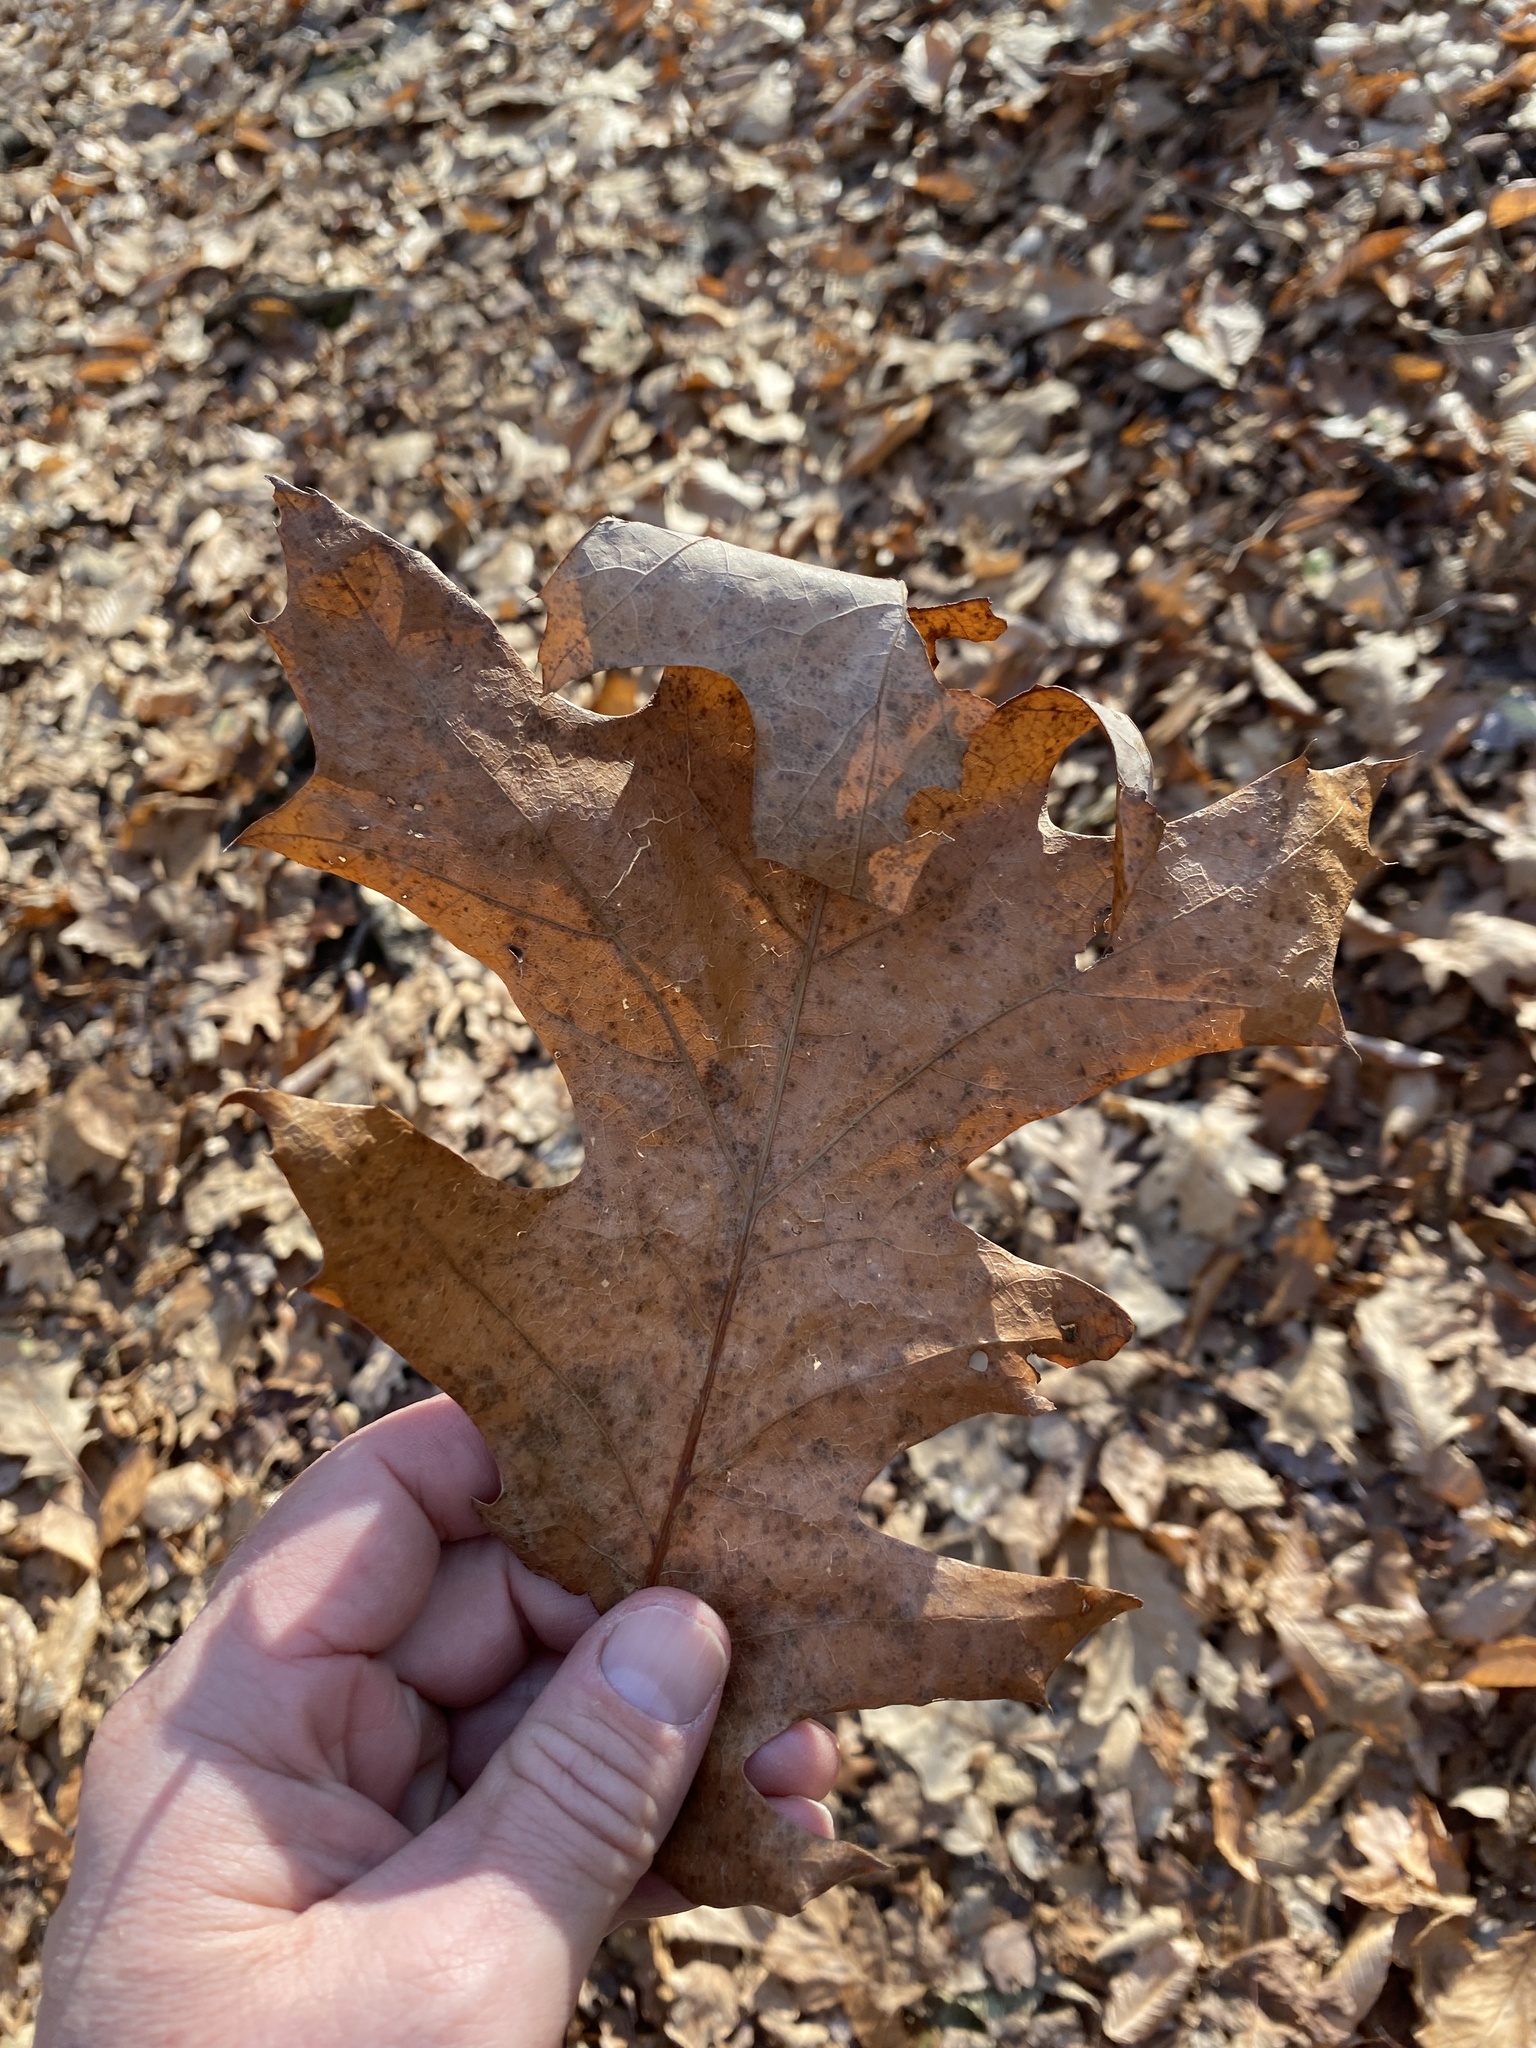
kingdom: Plantae
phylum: Tracheophyta
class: Magnoliopsida
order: Fagales
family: Fagaceae
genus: Quercus
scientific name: Quercus rubra
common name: Red oak
